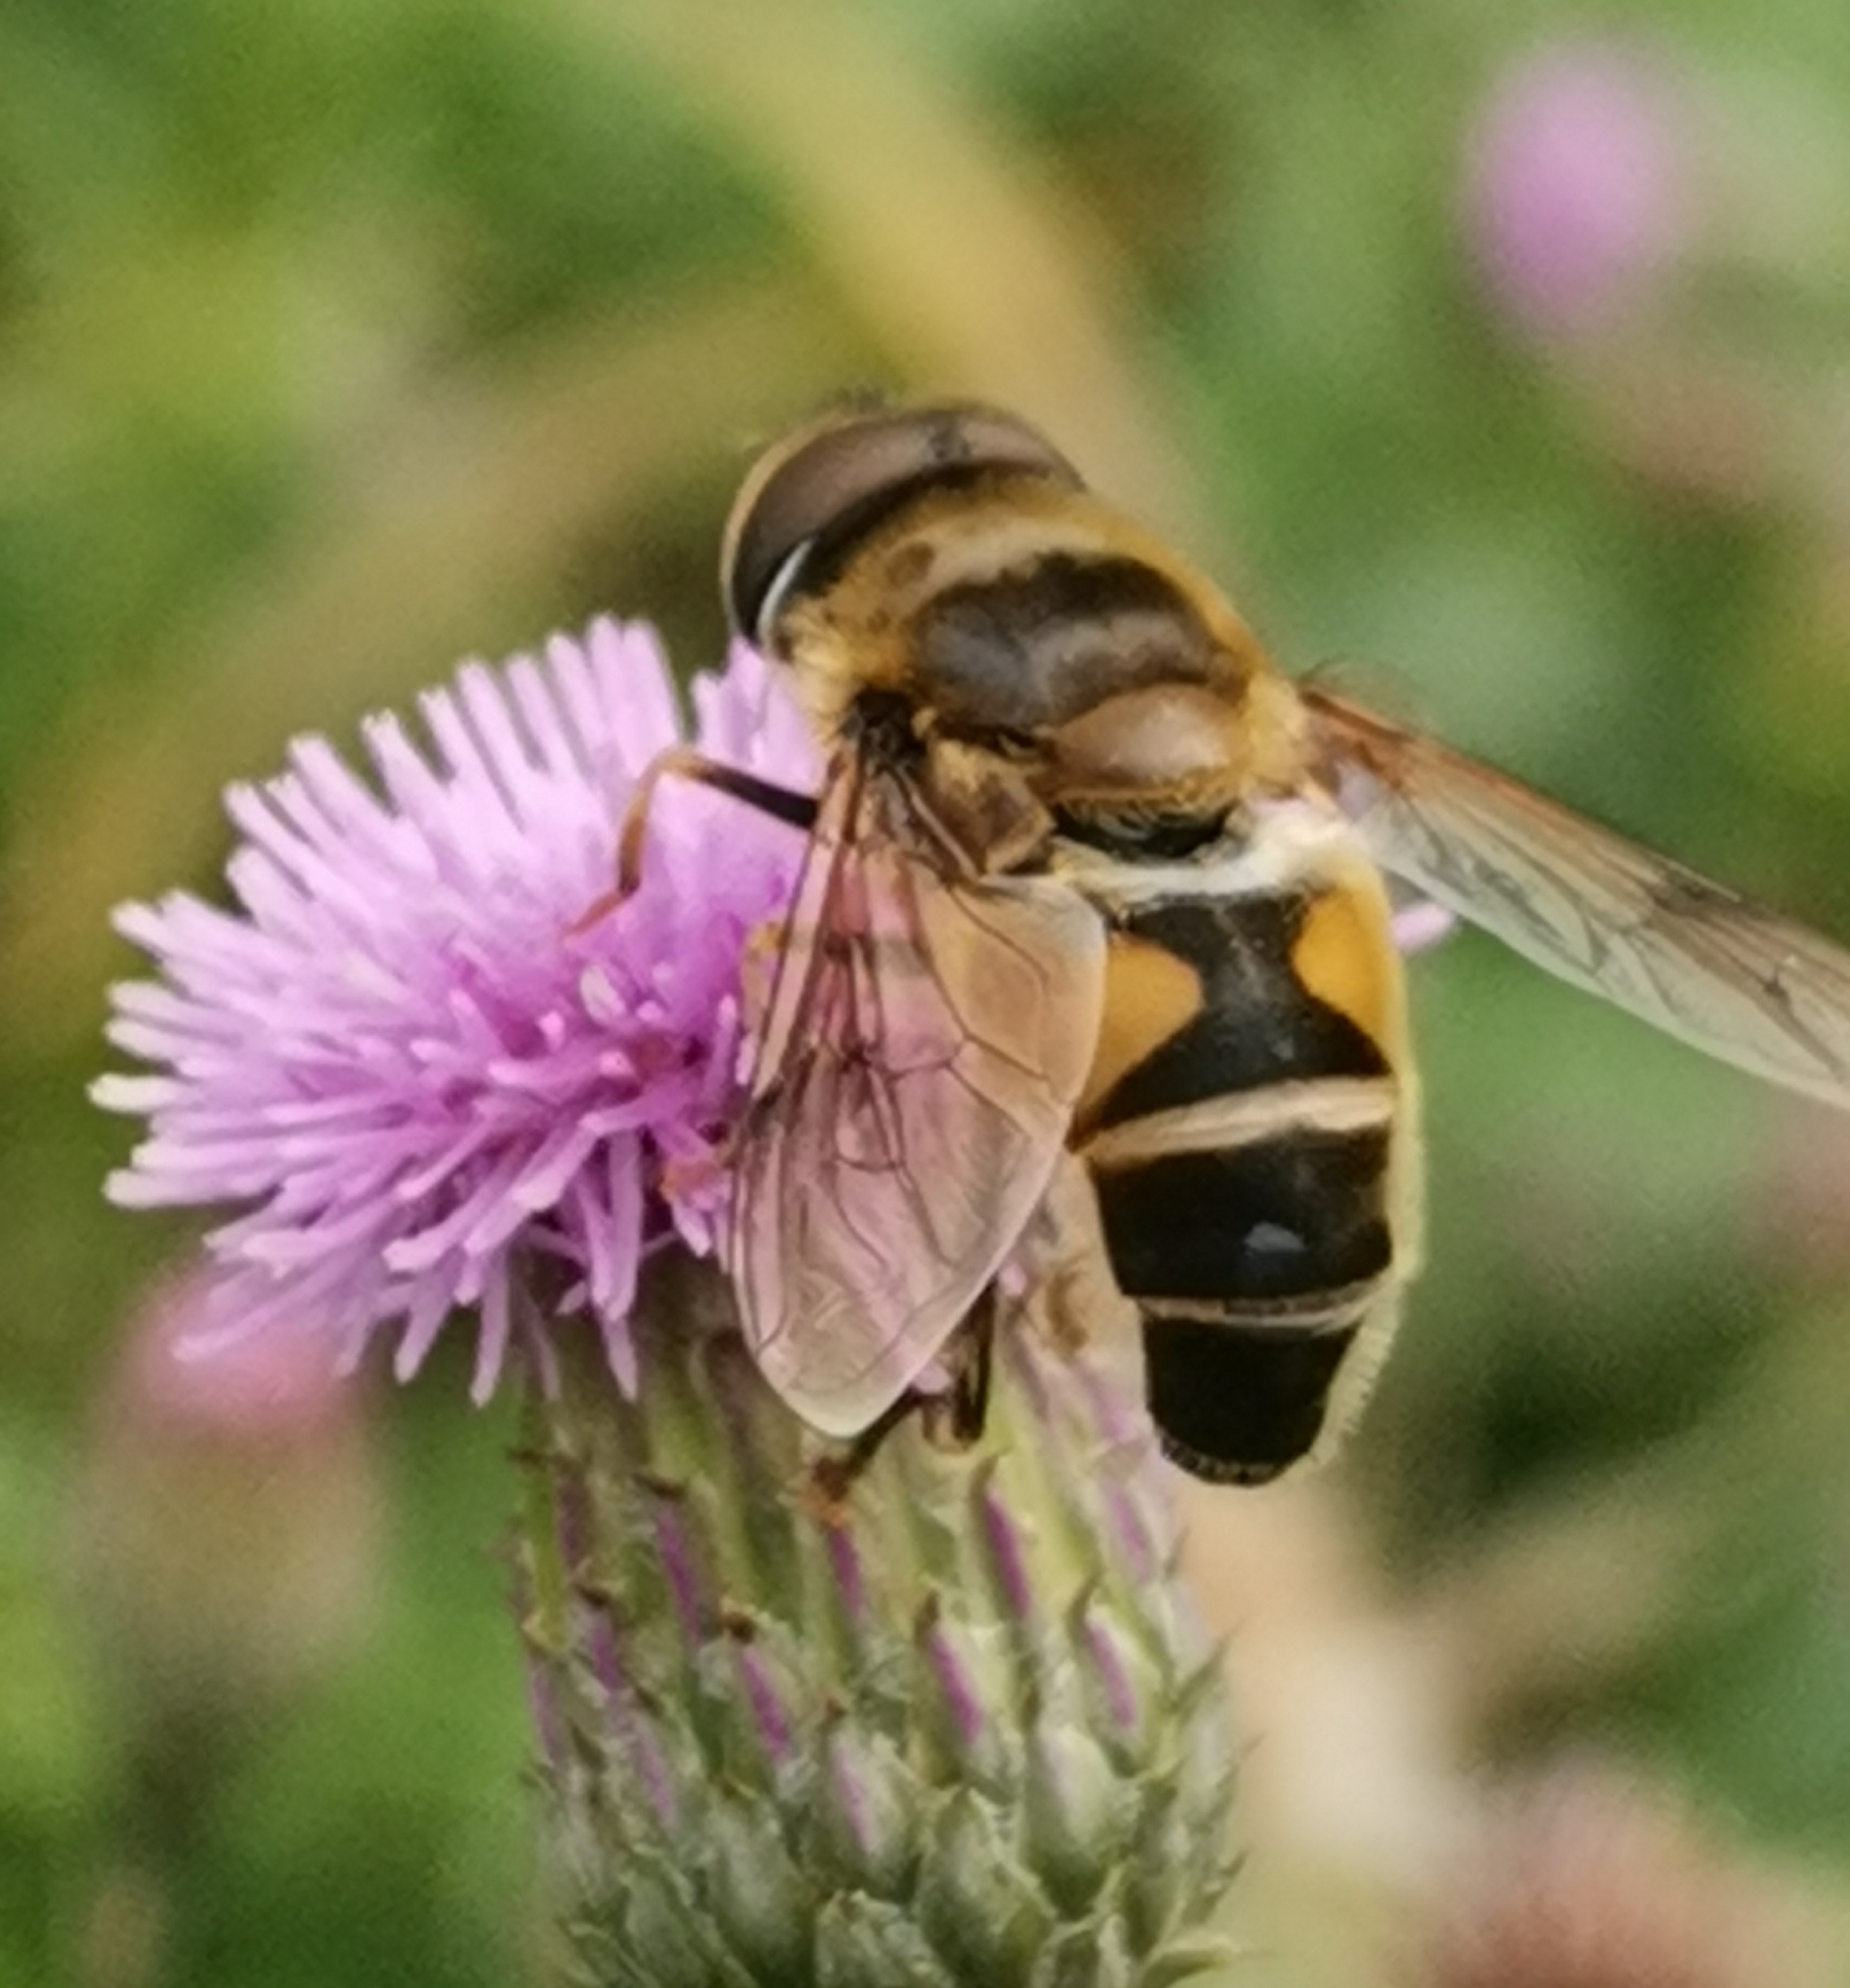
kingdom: Animalia
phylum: Arthropoda
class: Insecta
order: Diptera
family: Syrphidae
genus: Eristalis
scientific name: Eristalis pertinax
